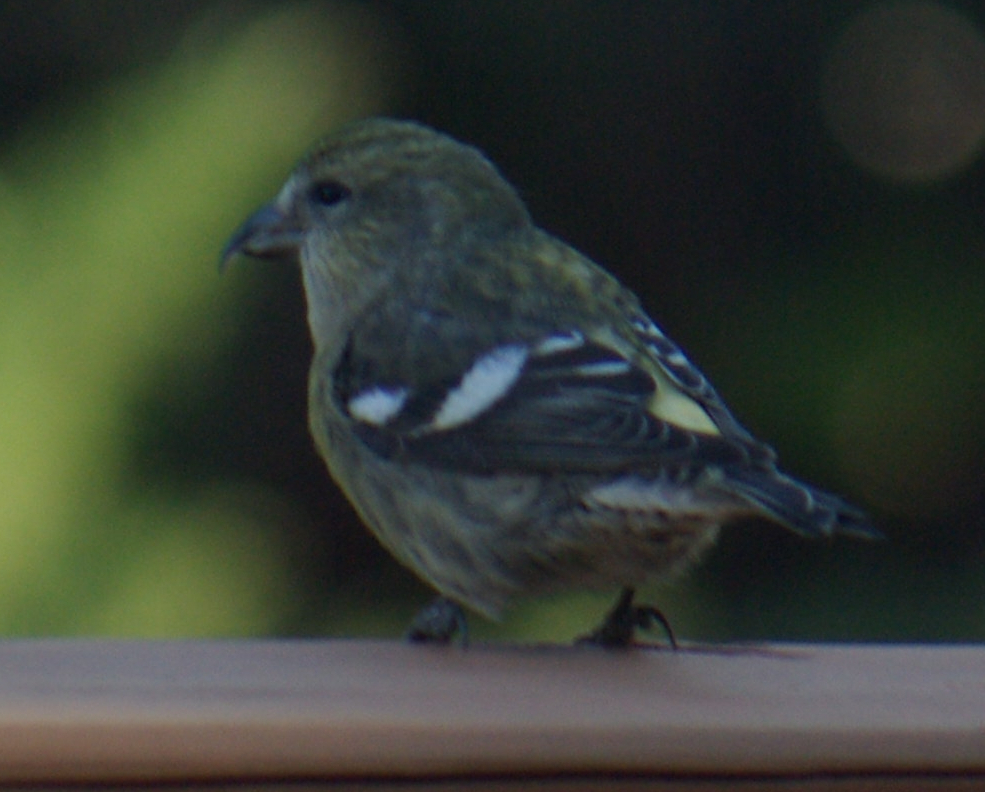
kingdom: Animalia
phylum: Chordata
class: Aves
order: Passeriformes
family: Fringillidae
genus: Loxia
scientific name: Loxia leucoptera
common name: Two-barred crossbill
